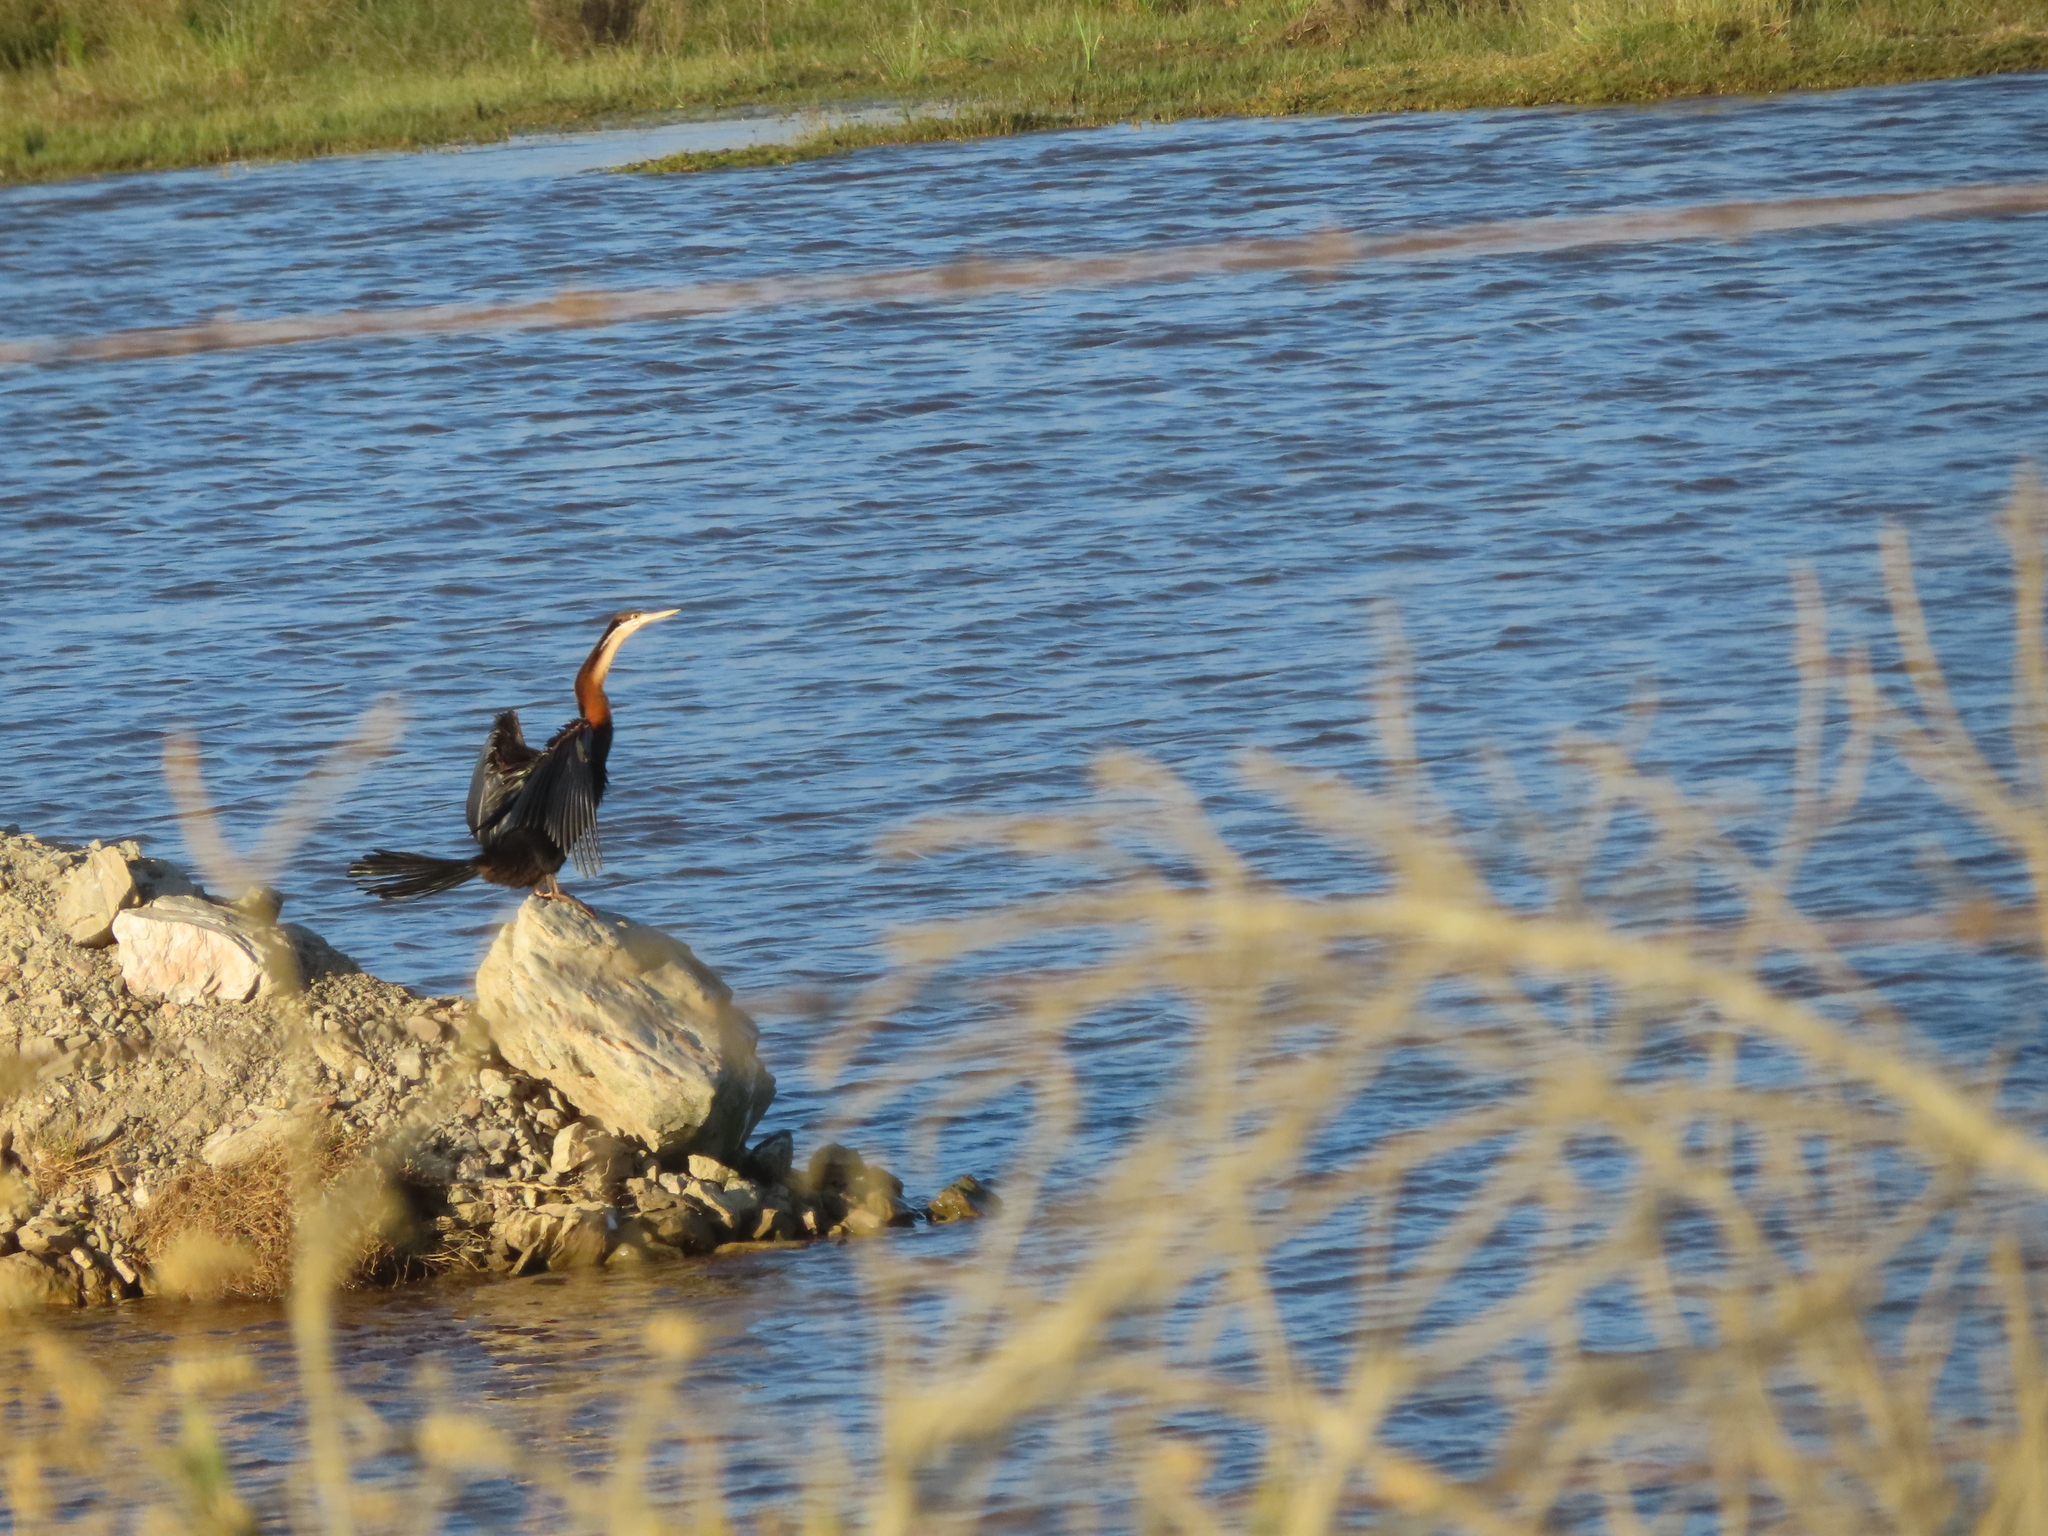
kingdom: Animalia
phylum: Chordata
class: Aves
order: Suliformes
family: Anhingidae
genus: Anhinga
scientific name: Anhinga rufa
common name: African darter
